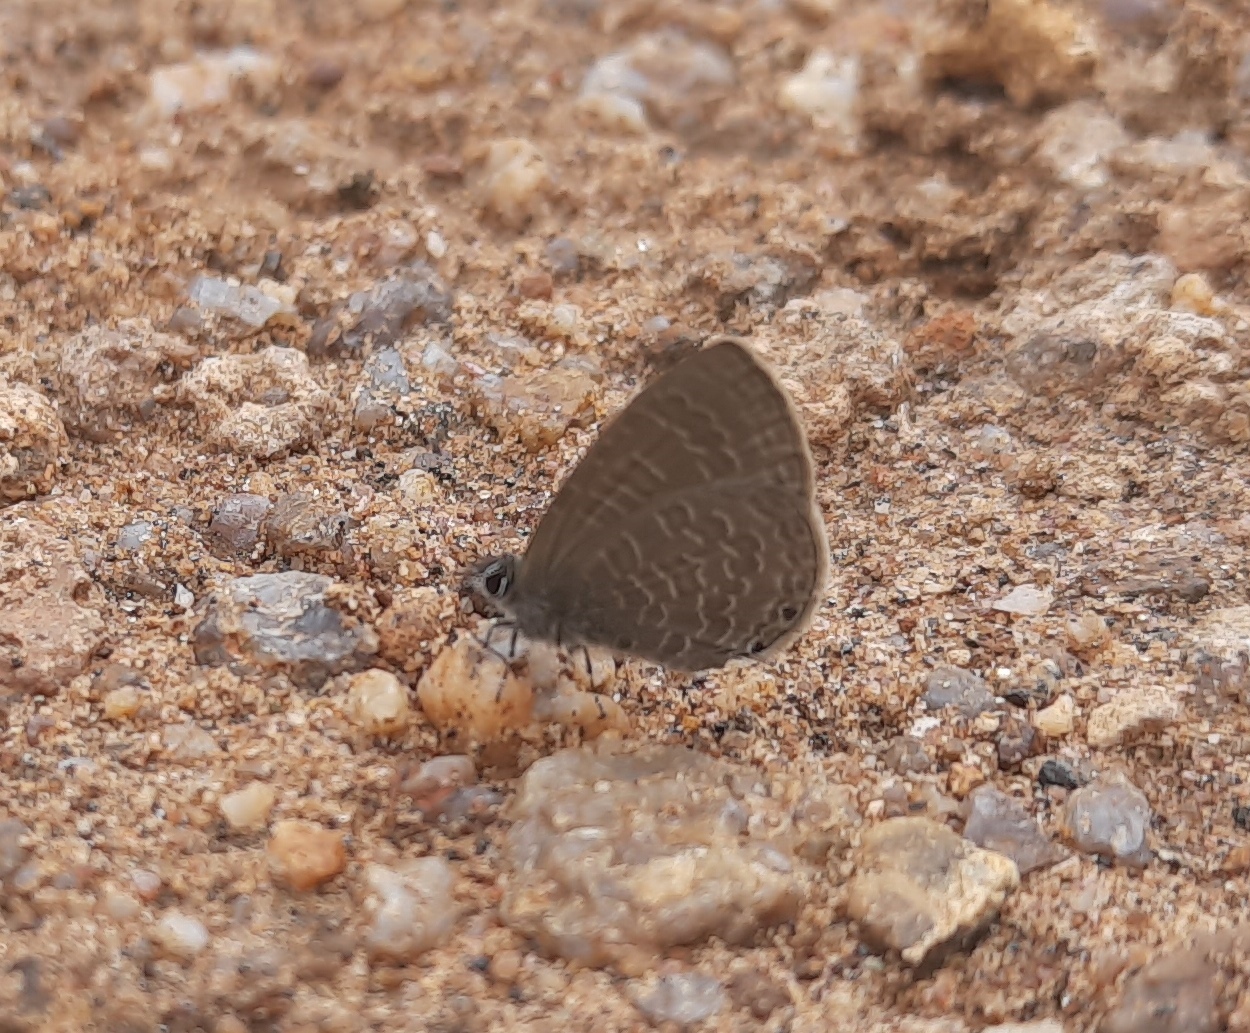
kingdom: Animalia
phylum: Arthropoda
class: Insecta
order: Lepidoptera
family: Lycaenidae
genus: Prosotas
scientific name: Prosotas dubiosa
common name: Tailless lineblue
